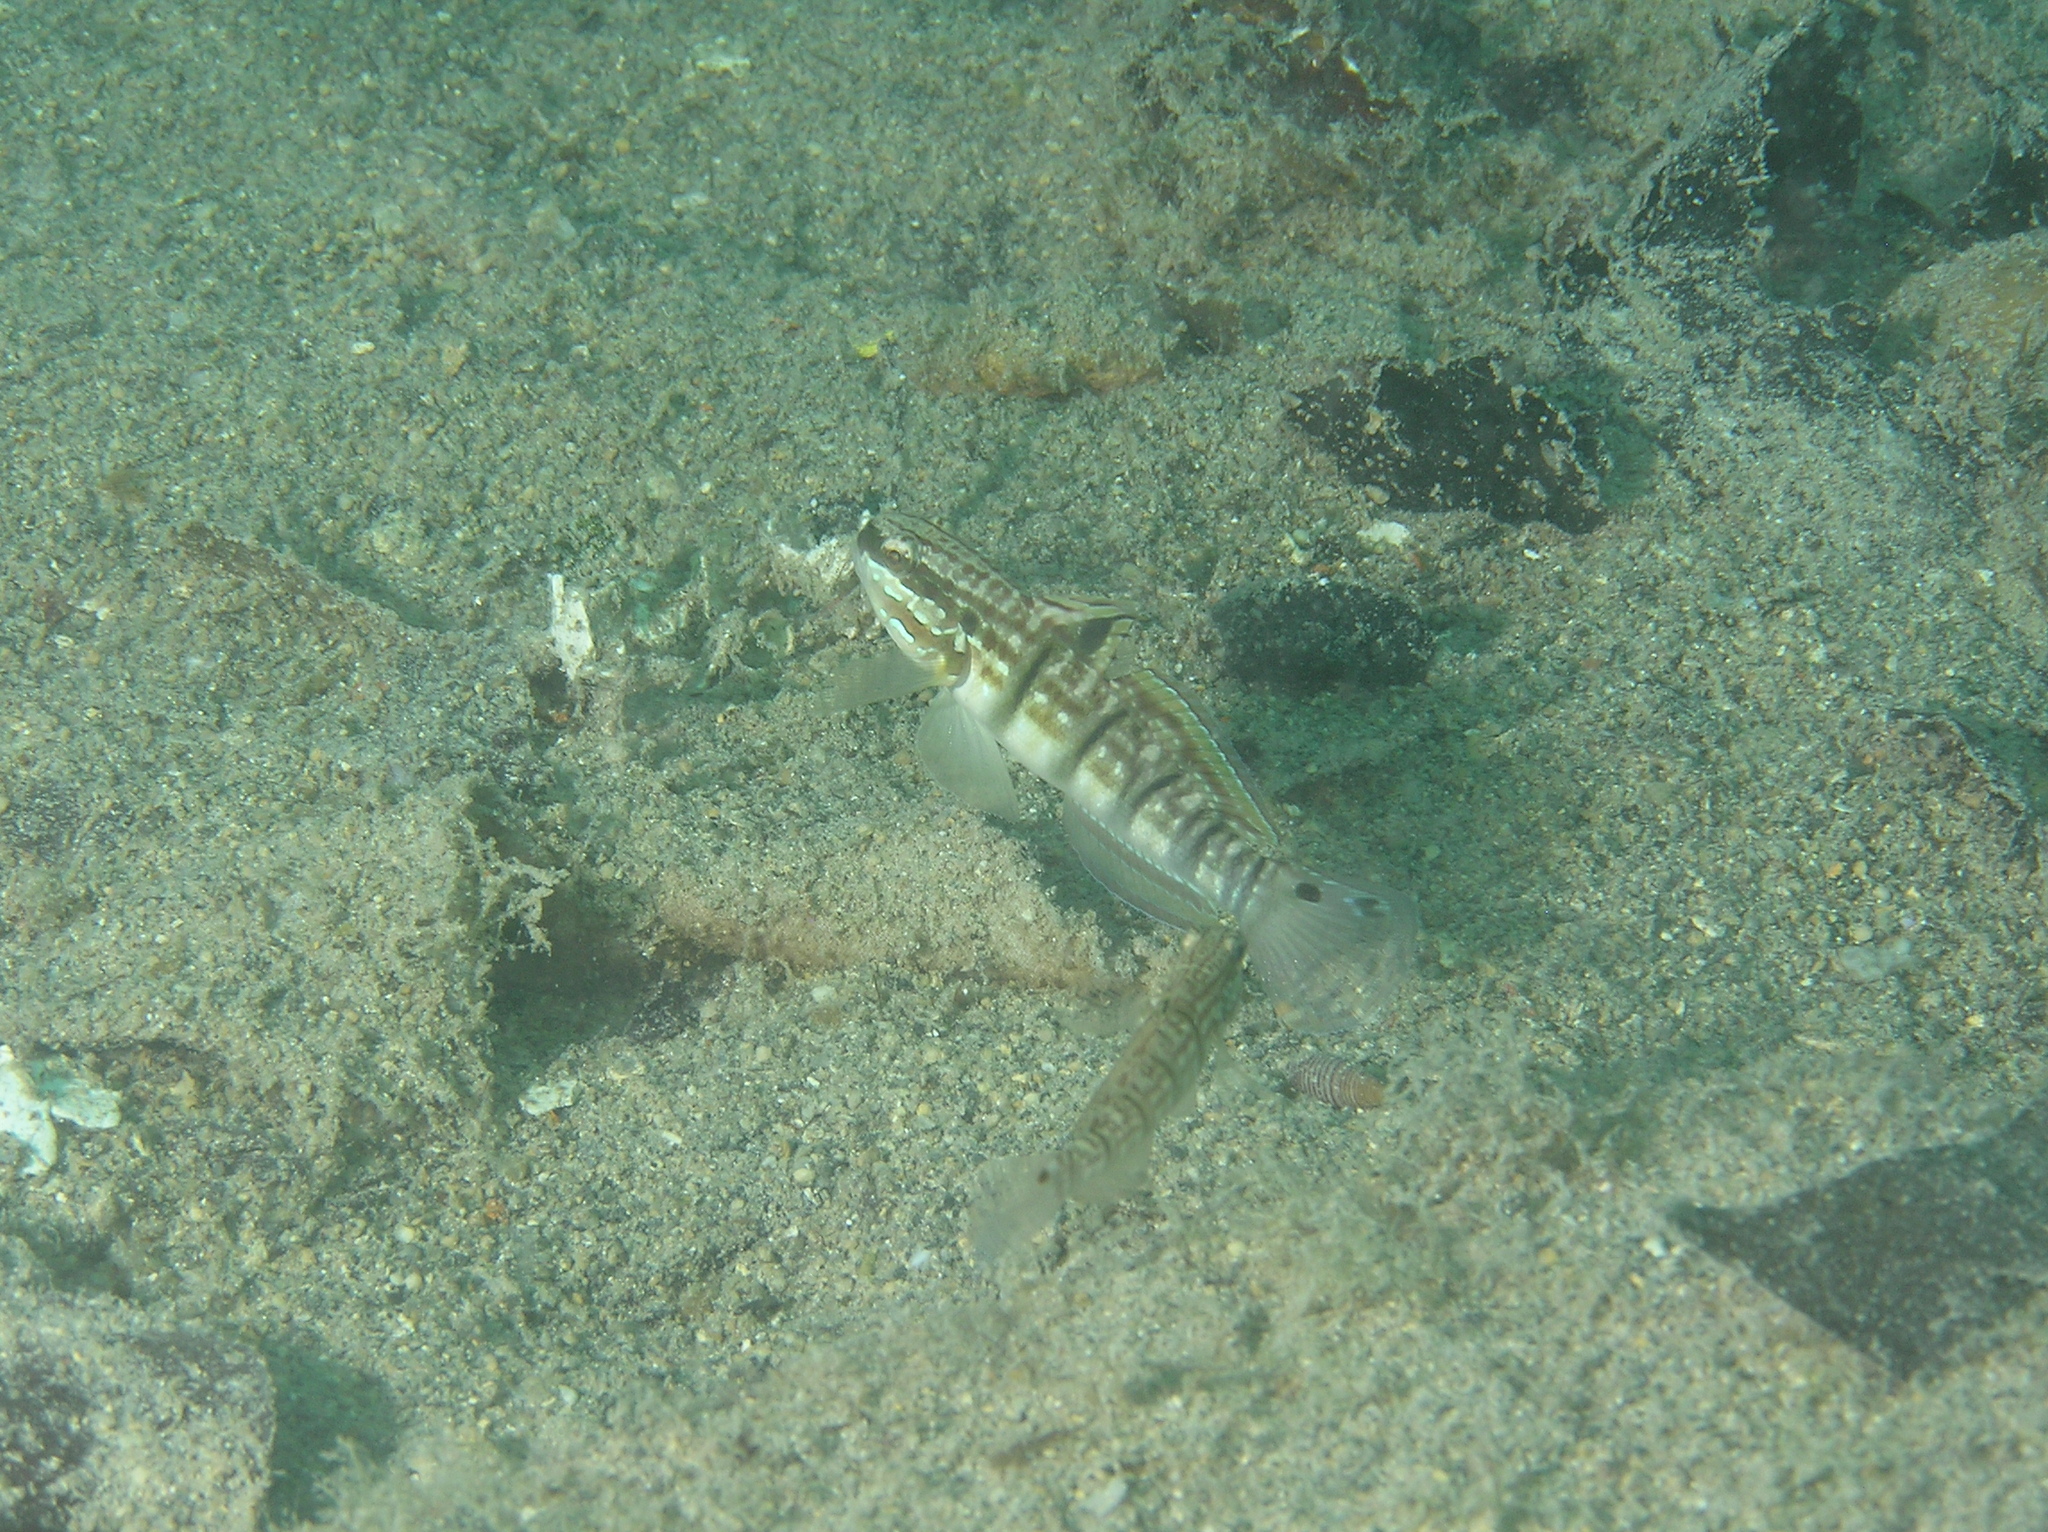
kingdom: Animalia
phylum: Chordata
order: Perciformes
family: Gobiidae
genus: Amblygobius
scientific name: Amblygobius phalaena
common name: Banded goby
